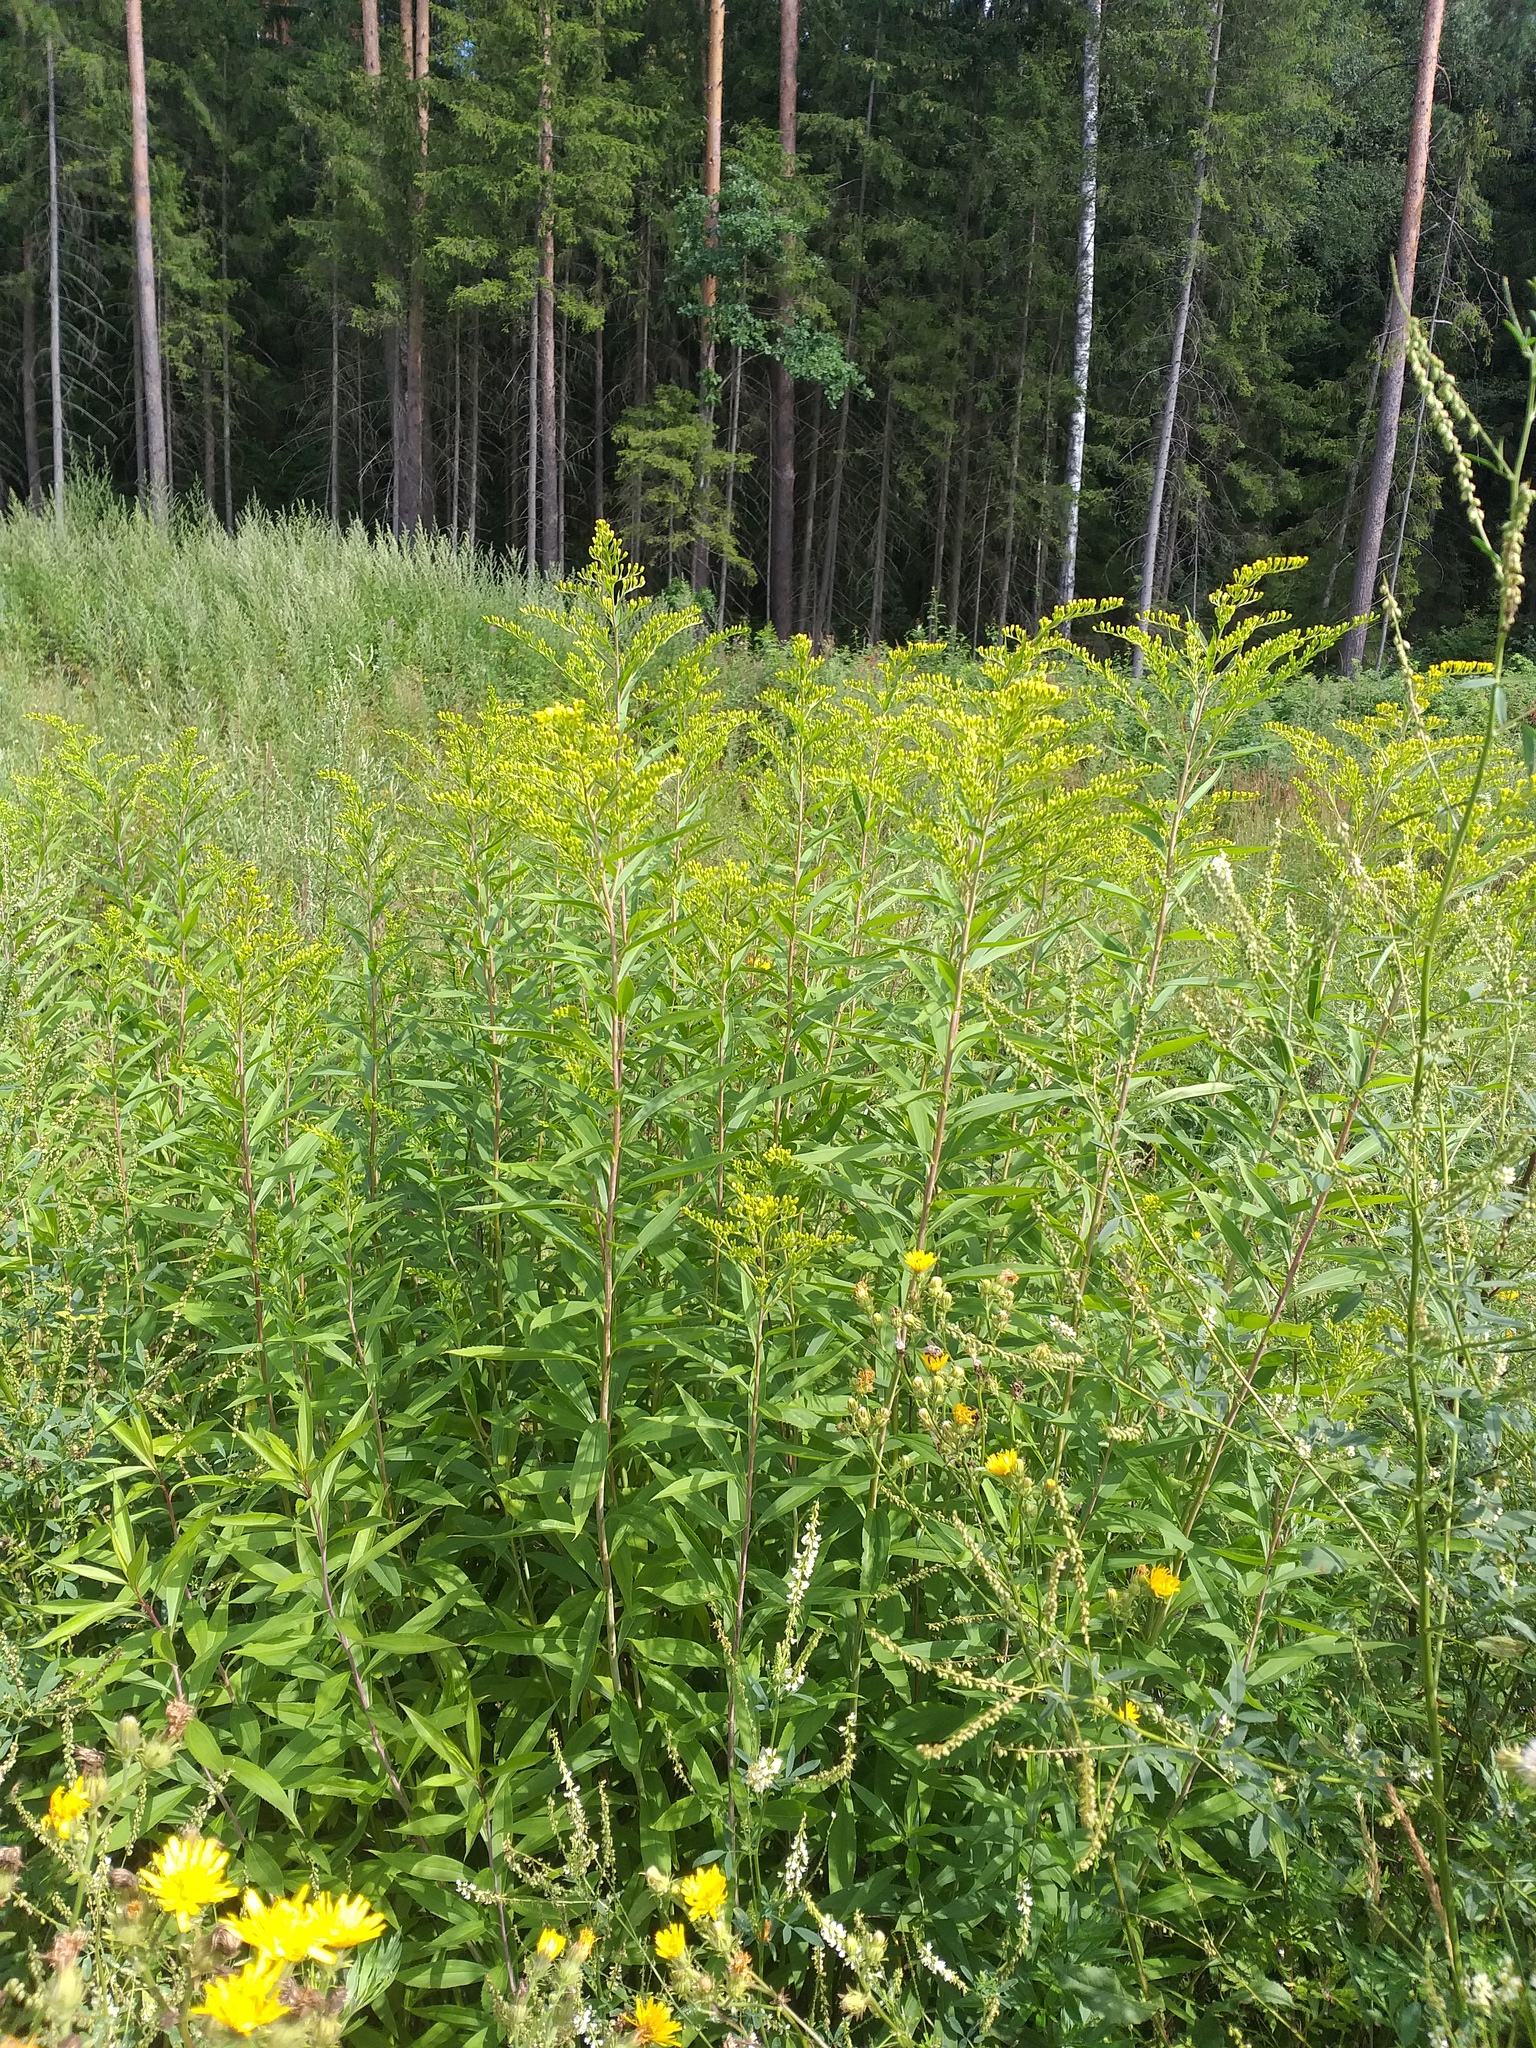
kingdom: Plantae
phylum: Tracheophyta
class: Magnoliopsida
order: Asterales
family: Asteraceae
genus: Solidago
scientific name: Solidago gigantea
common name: Giant goldenrod
